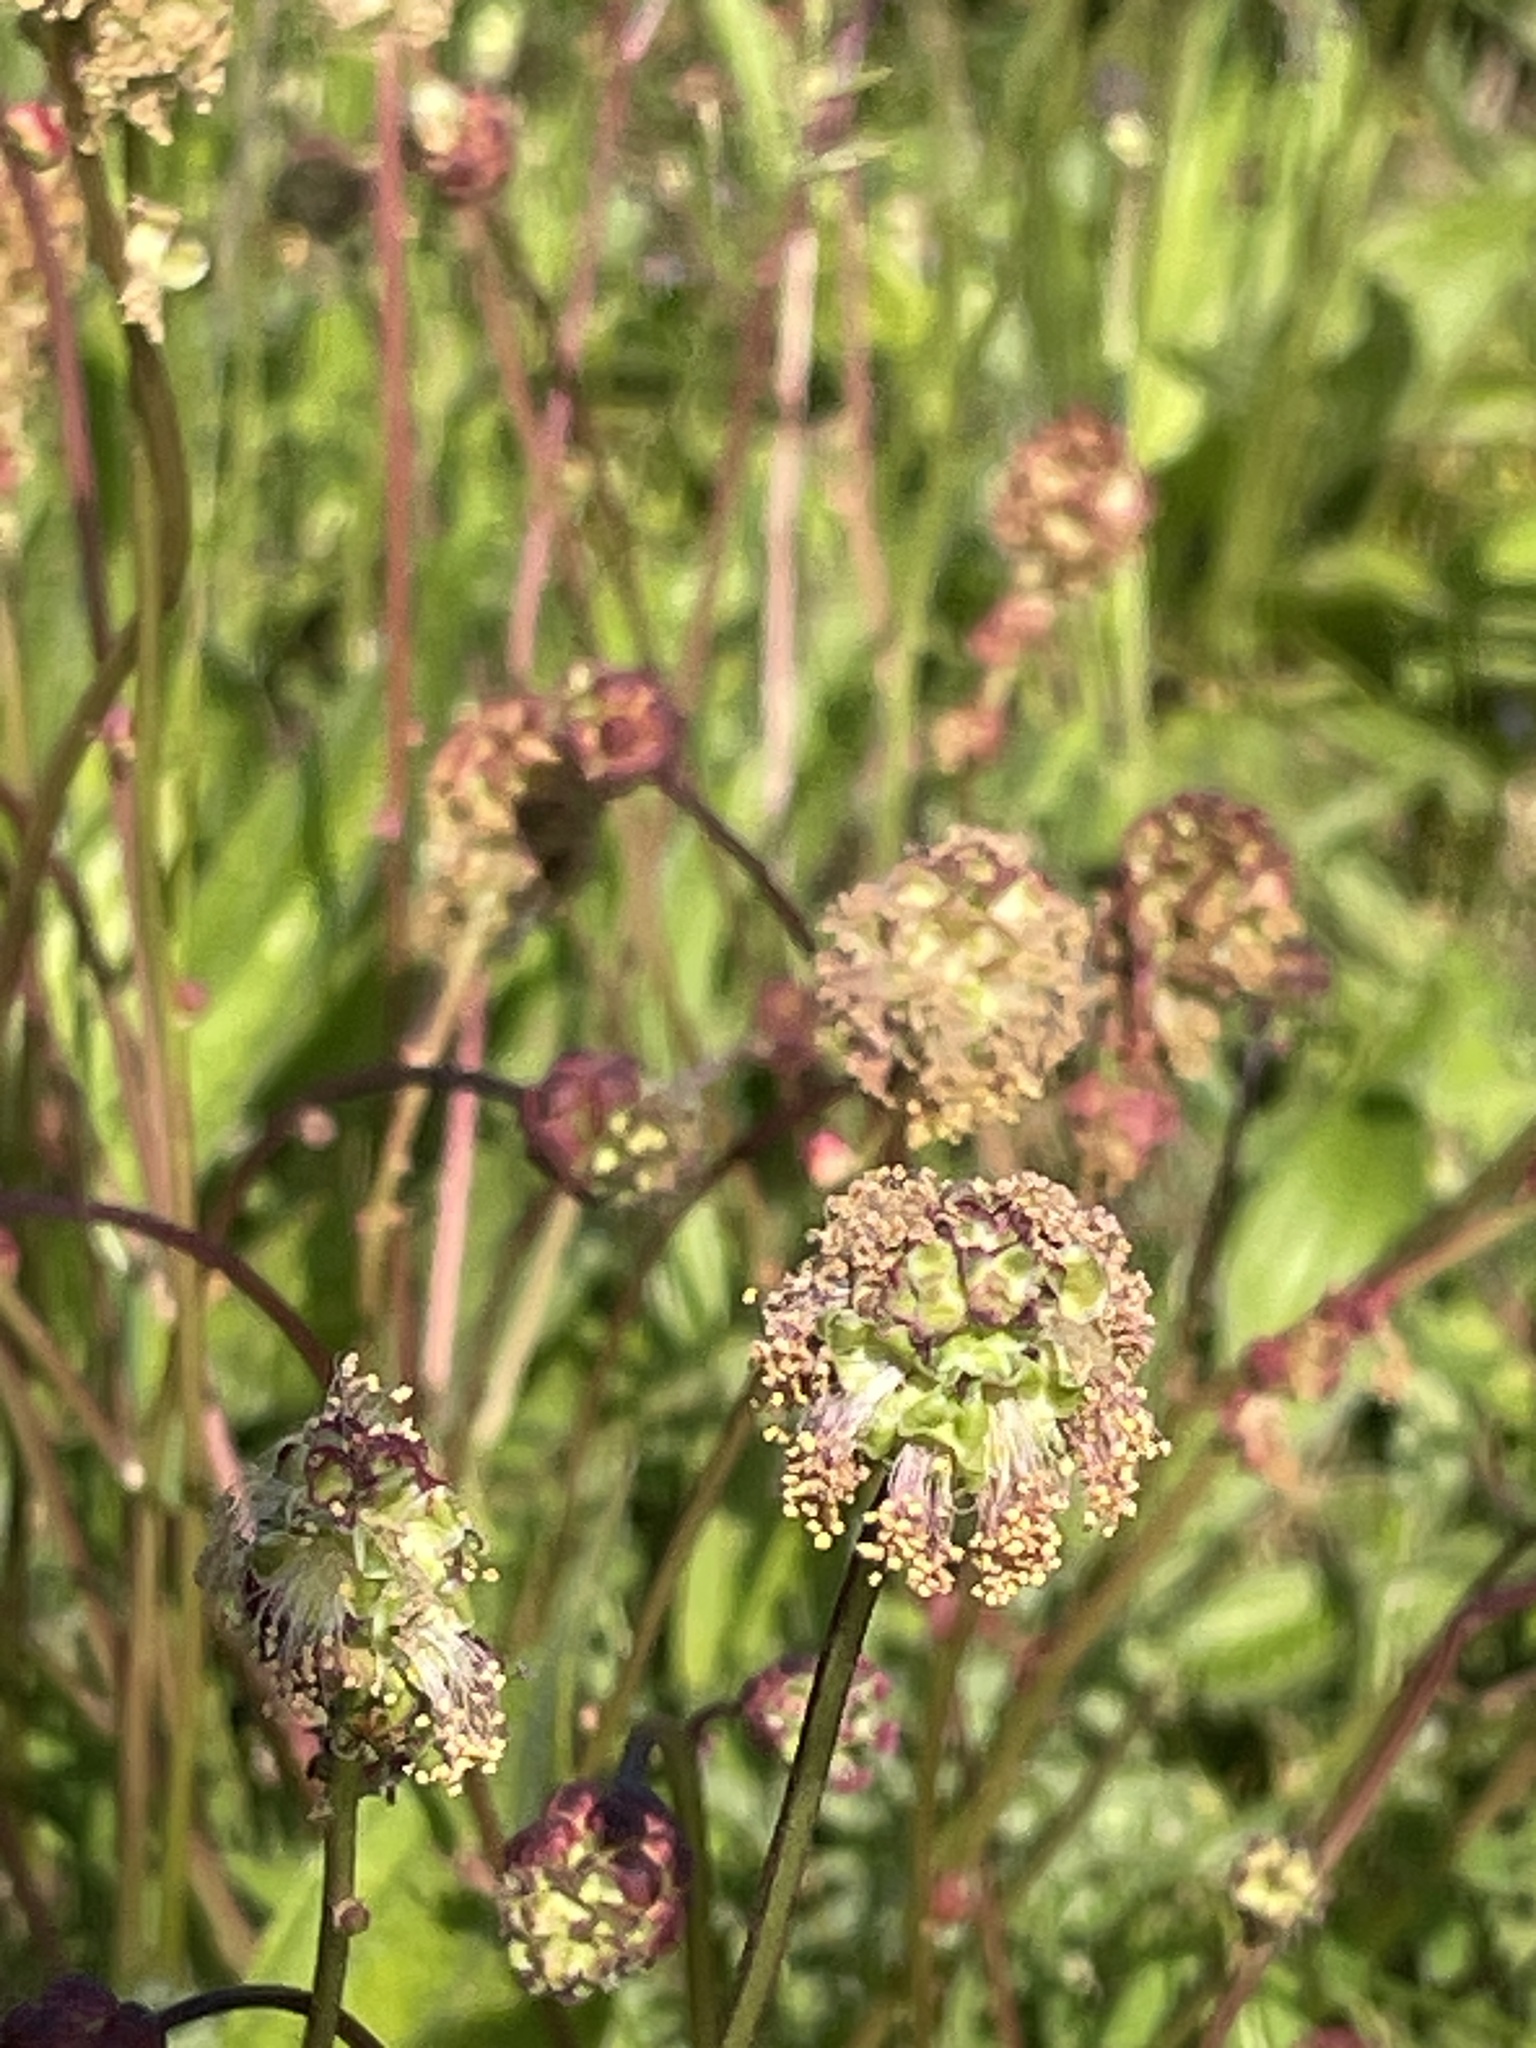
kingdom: Plantae
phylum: Tracheophyta
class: Magnoliopsida
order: Rosales
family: Rosaceae
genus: Poterium
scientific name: Poterium sanguisorba
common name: Salad burnet
